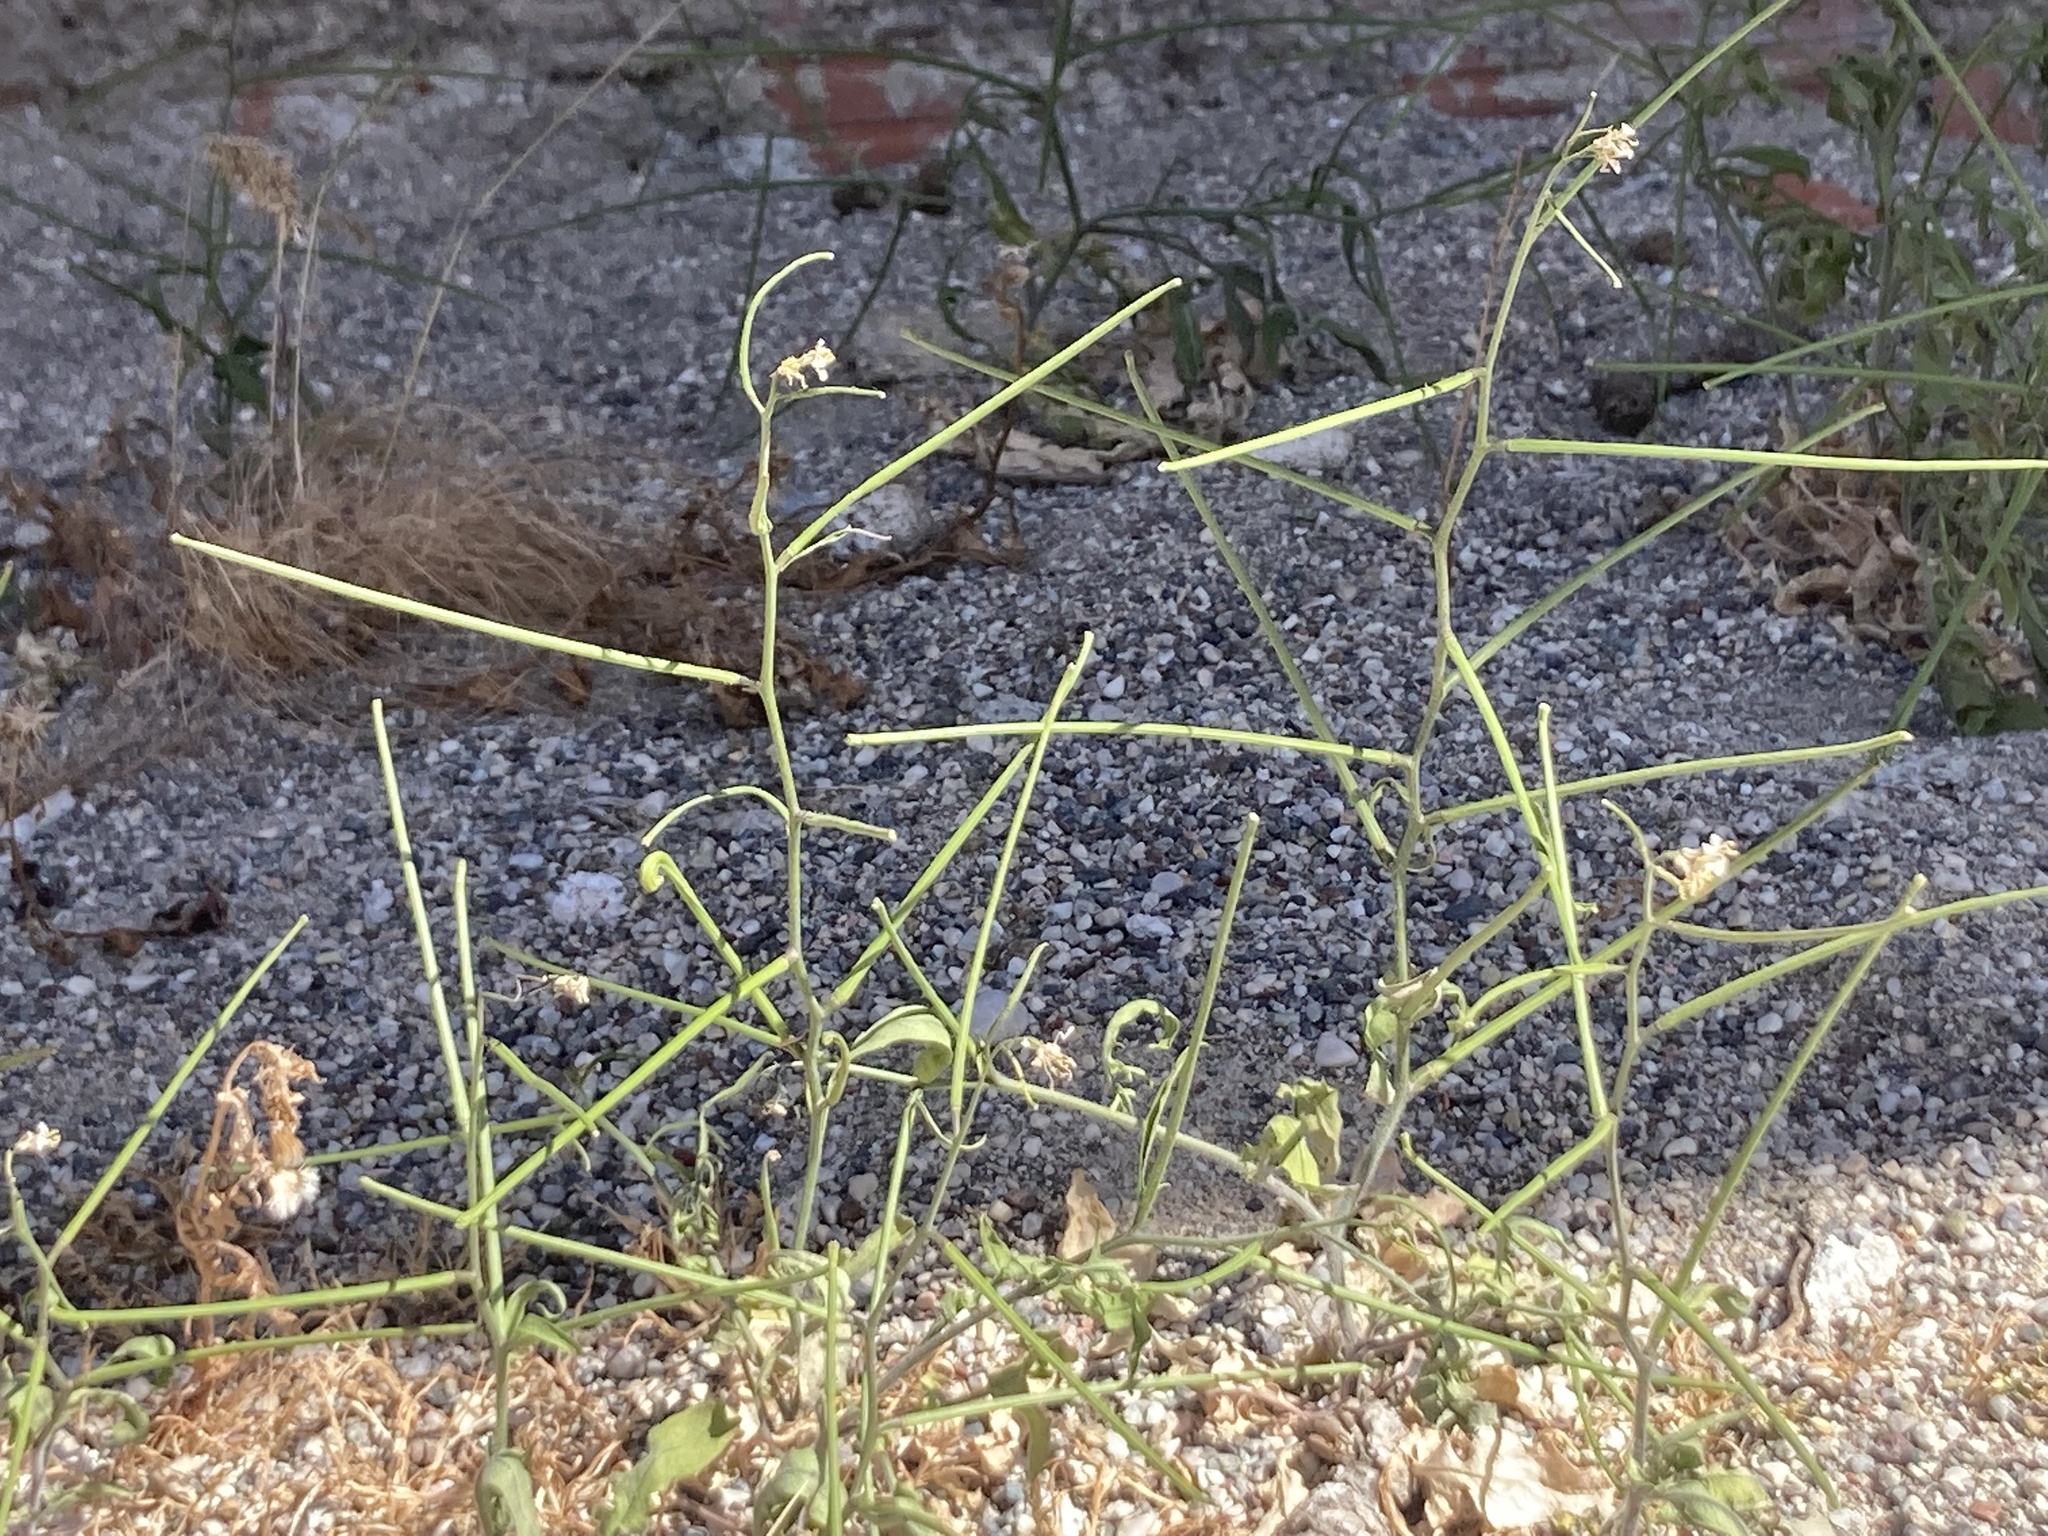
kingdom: Plantae
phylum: Tracheophyta
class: Magnoliopsida
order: Brassicales
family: Brassicaceae
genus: Sisymbrium
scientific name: Sisymbrium orientale
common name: Eastern rocket
